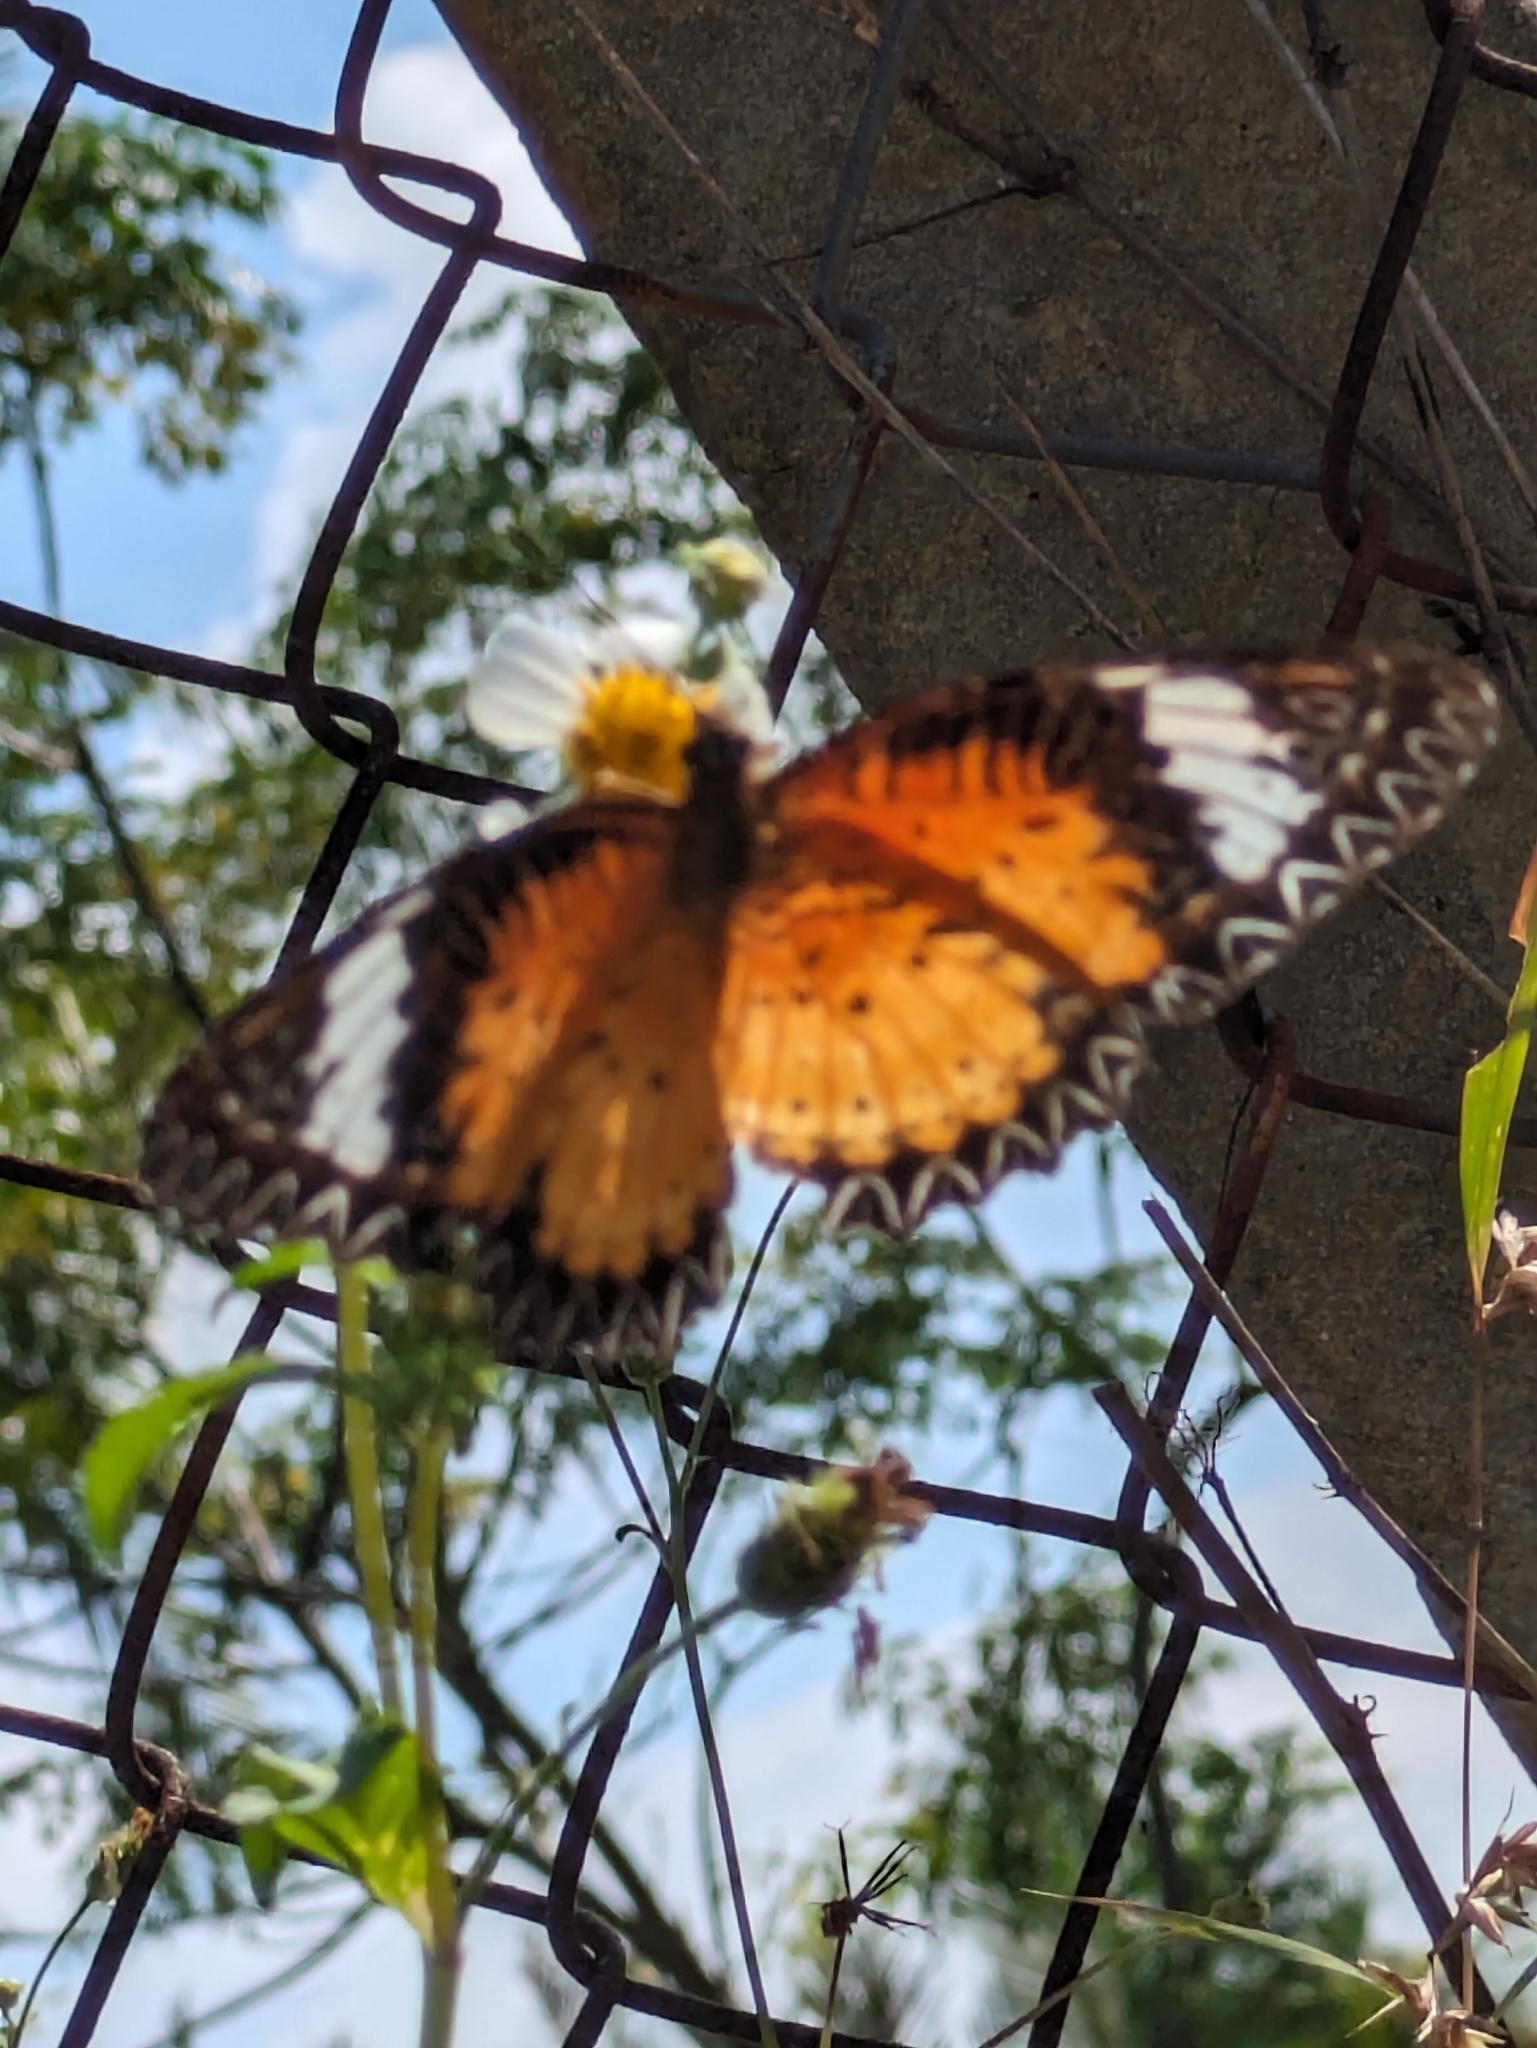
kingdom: Animalia
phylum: Arthropoda
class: Insecta
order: Lepidoptera
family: Nymphalidae
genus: Cethosia
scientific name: Cethosia cyane
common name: Leopard lacewing butterfly
